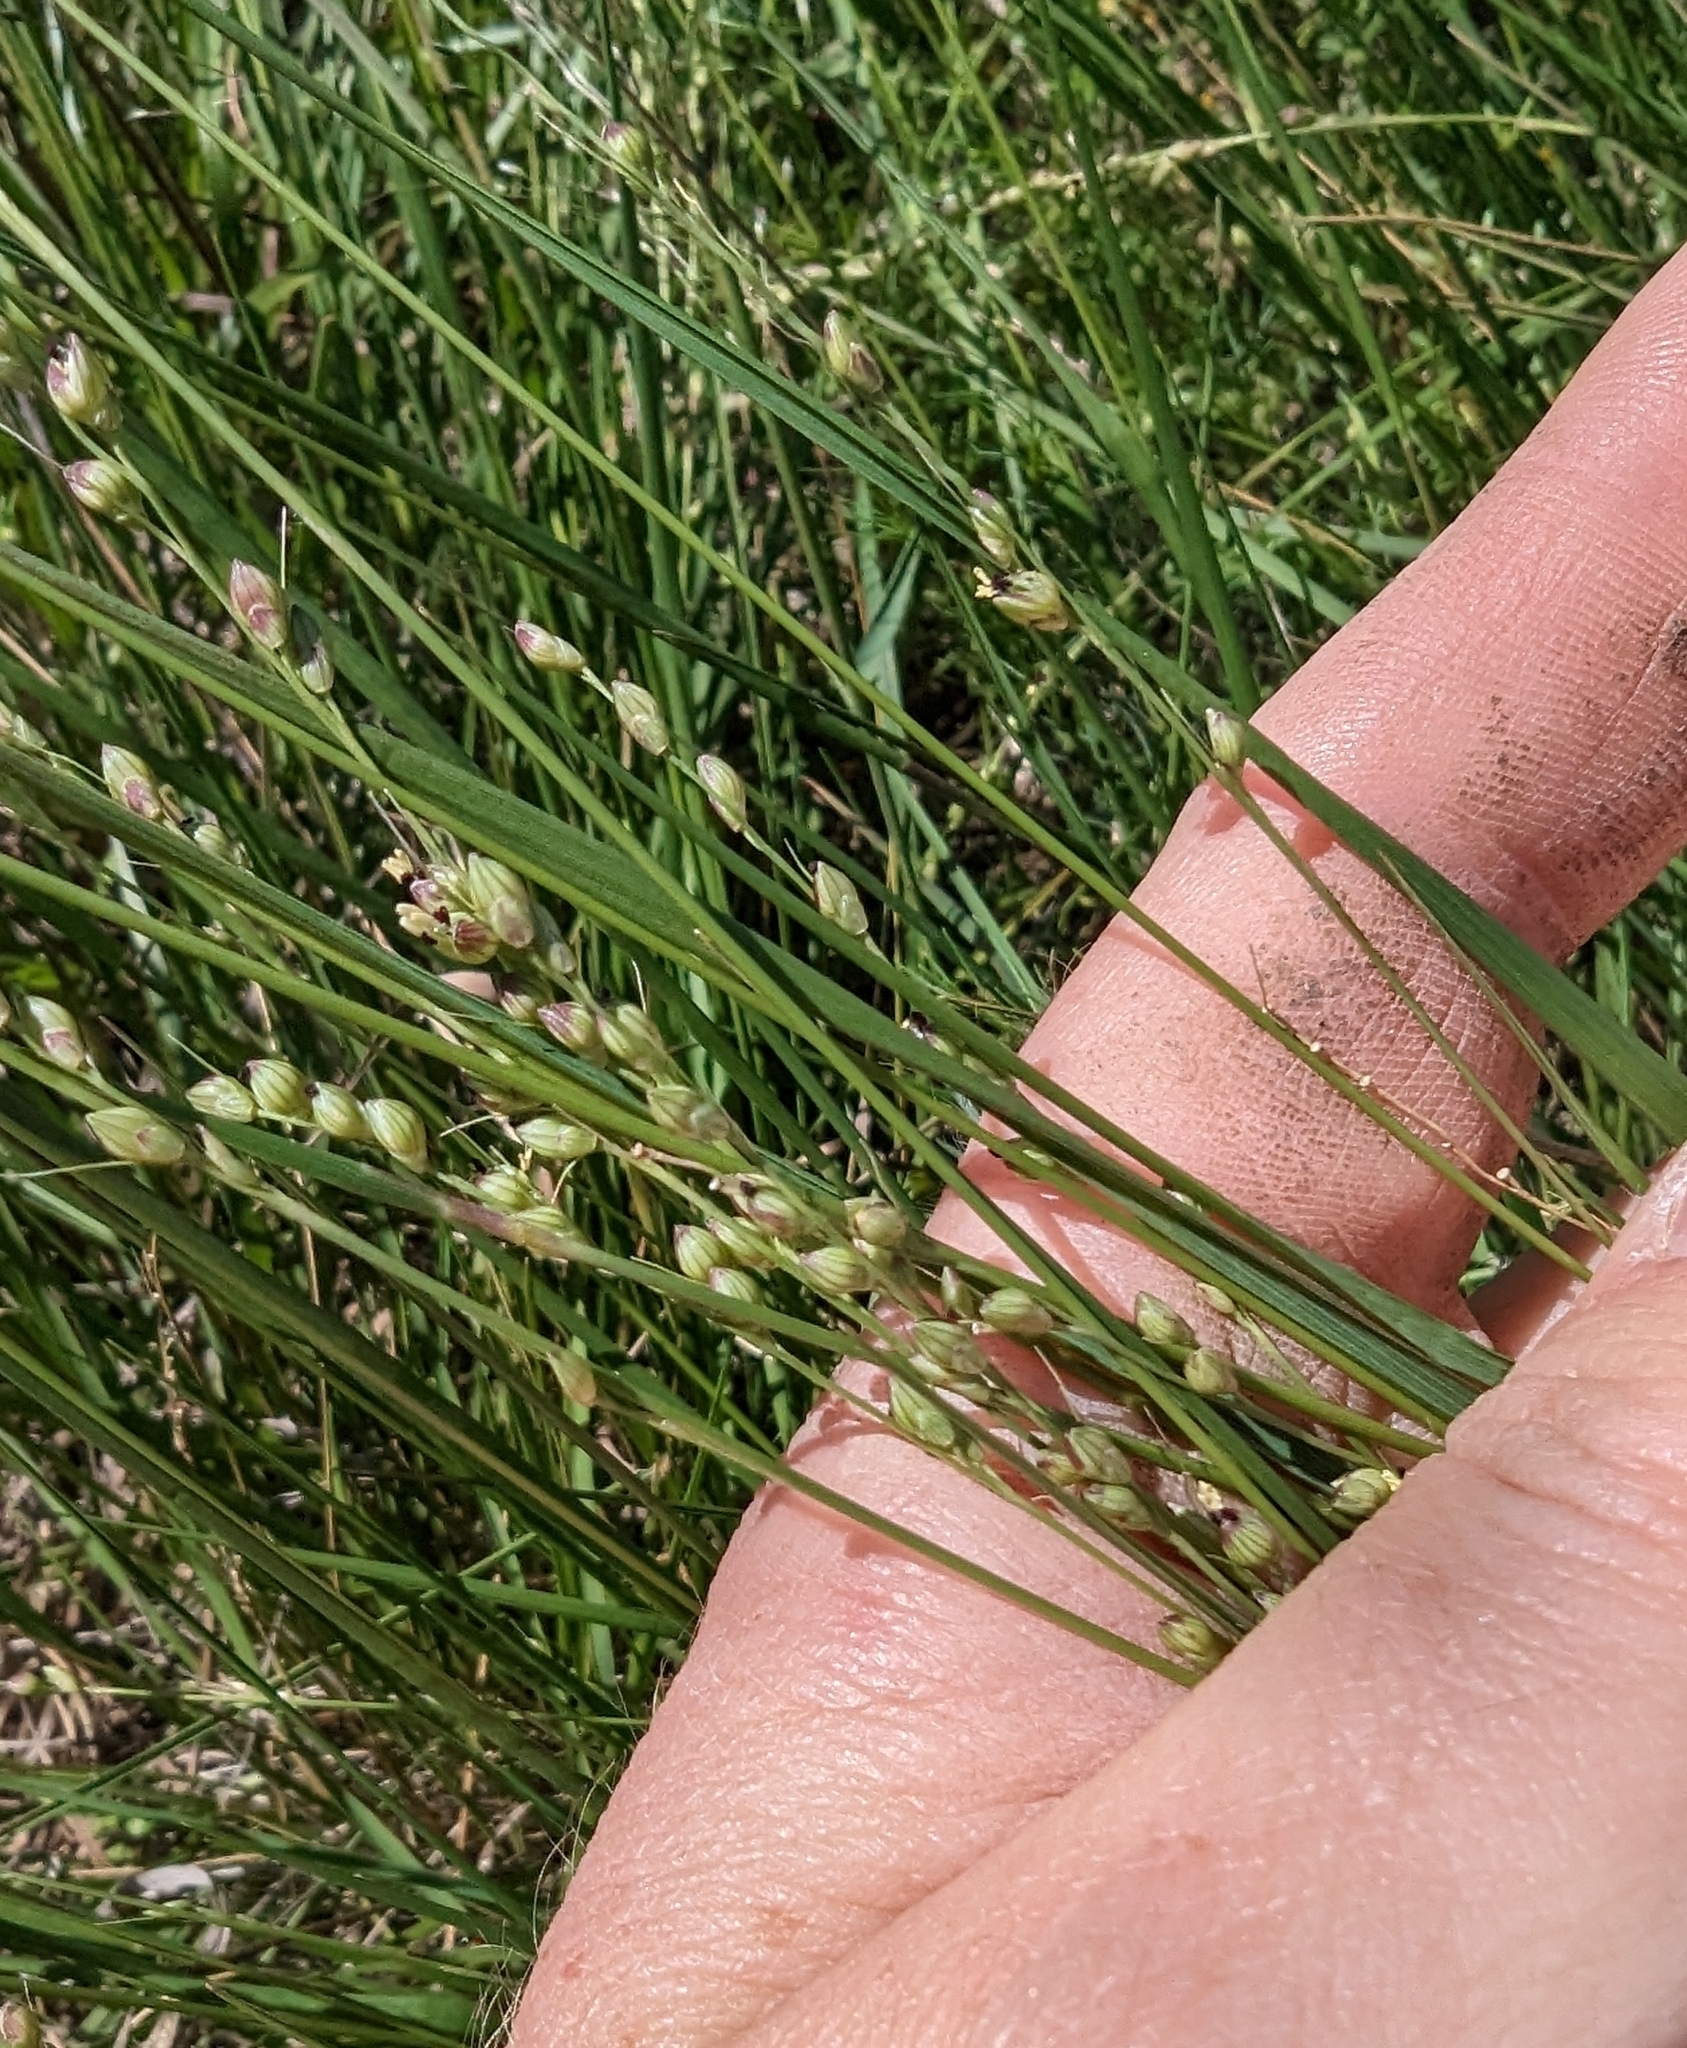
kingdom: Plantae
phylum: Tracheophyta
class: Liliopsida
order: Poales
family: Poaceae
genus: Setaria
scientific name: Setaria reverchonii
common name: Reverchon's bristle grass
